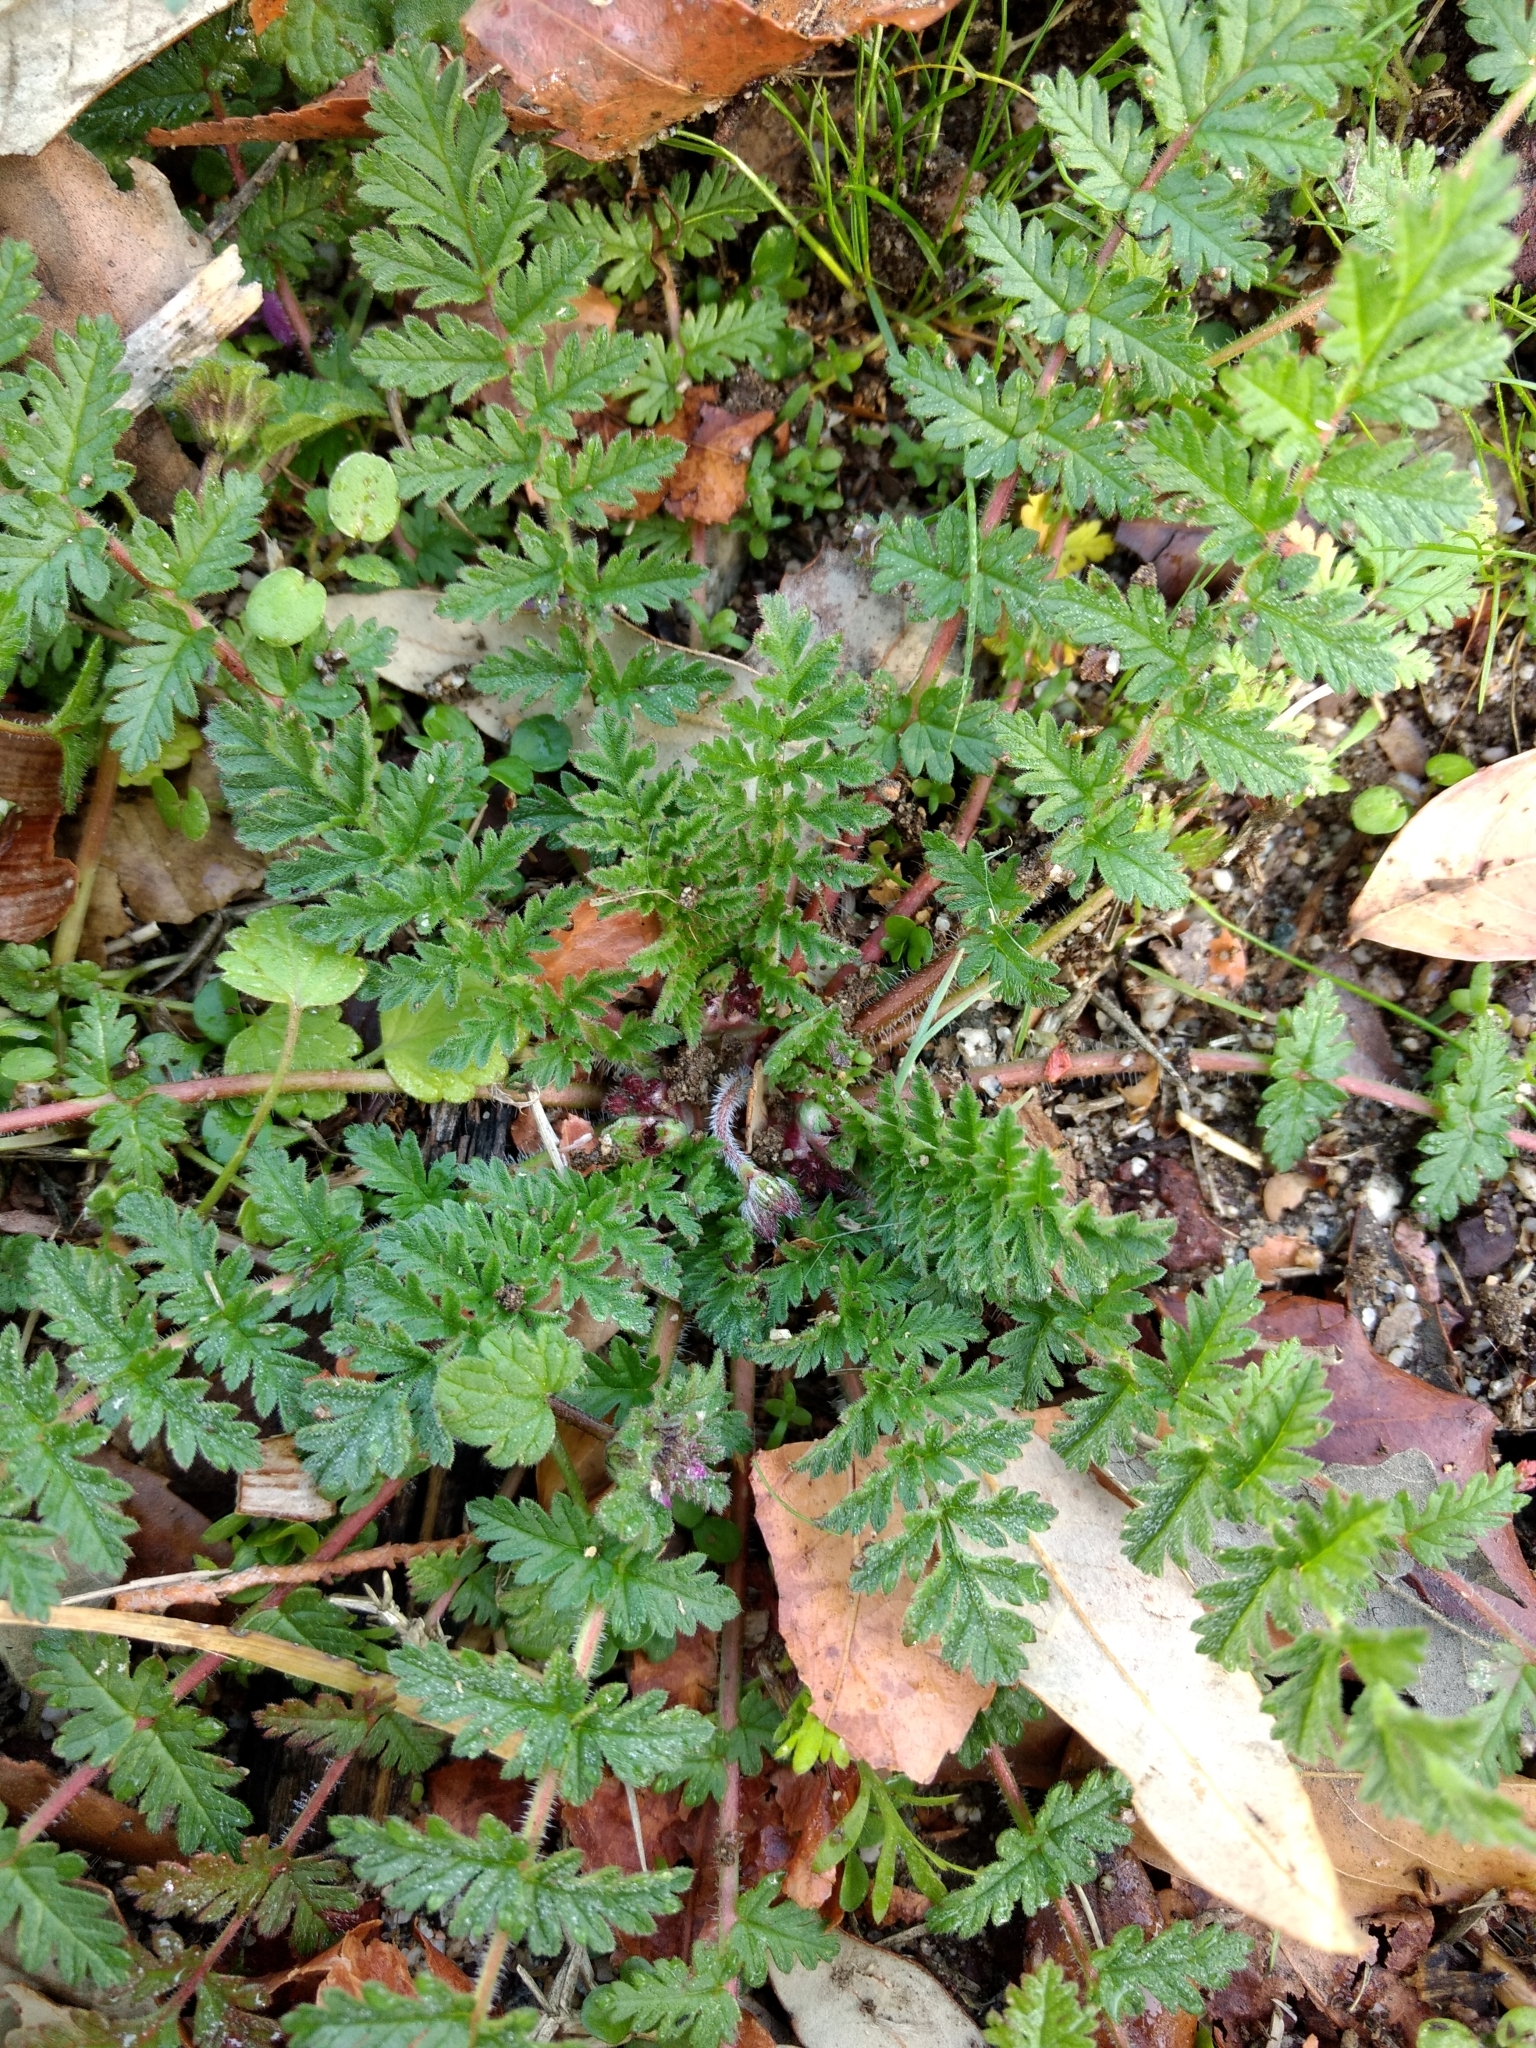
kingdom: Plantae
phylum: Tracheophyta
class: Magnoliopsida
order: Geraniales
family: Geraniaceae
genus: Erodium
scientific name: Erodium cicutarium
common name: Common stork's-bill
